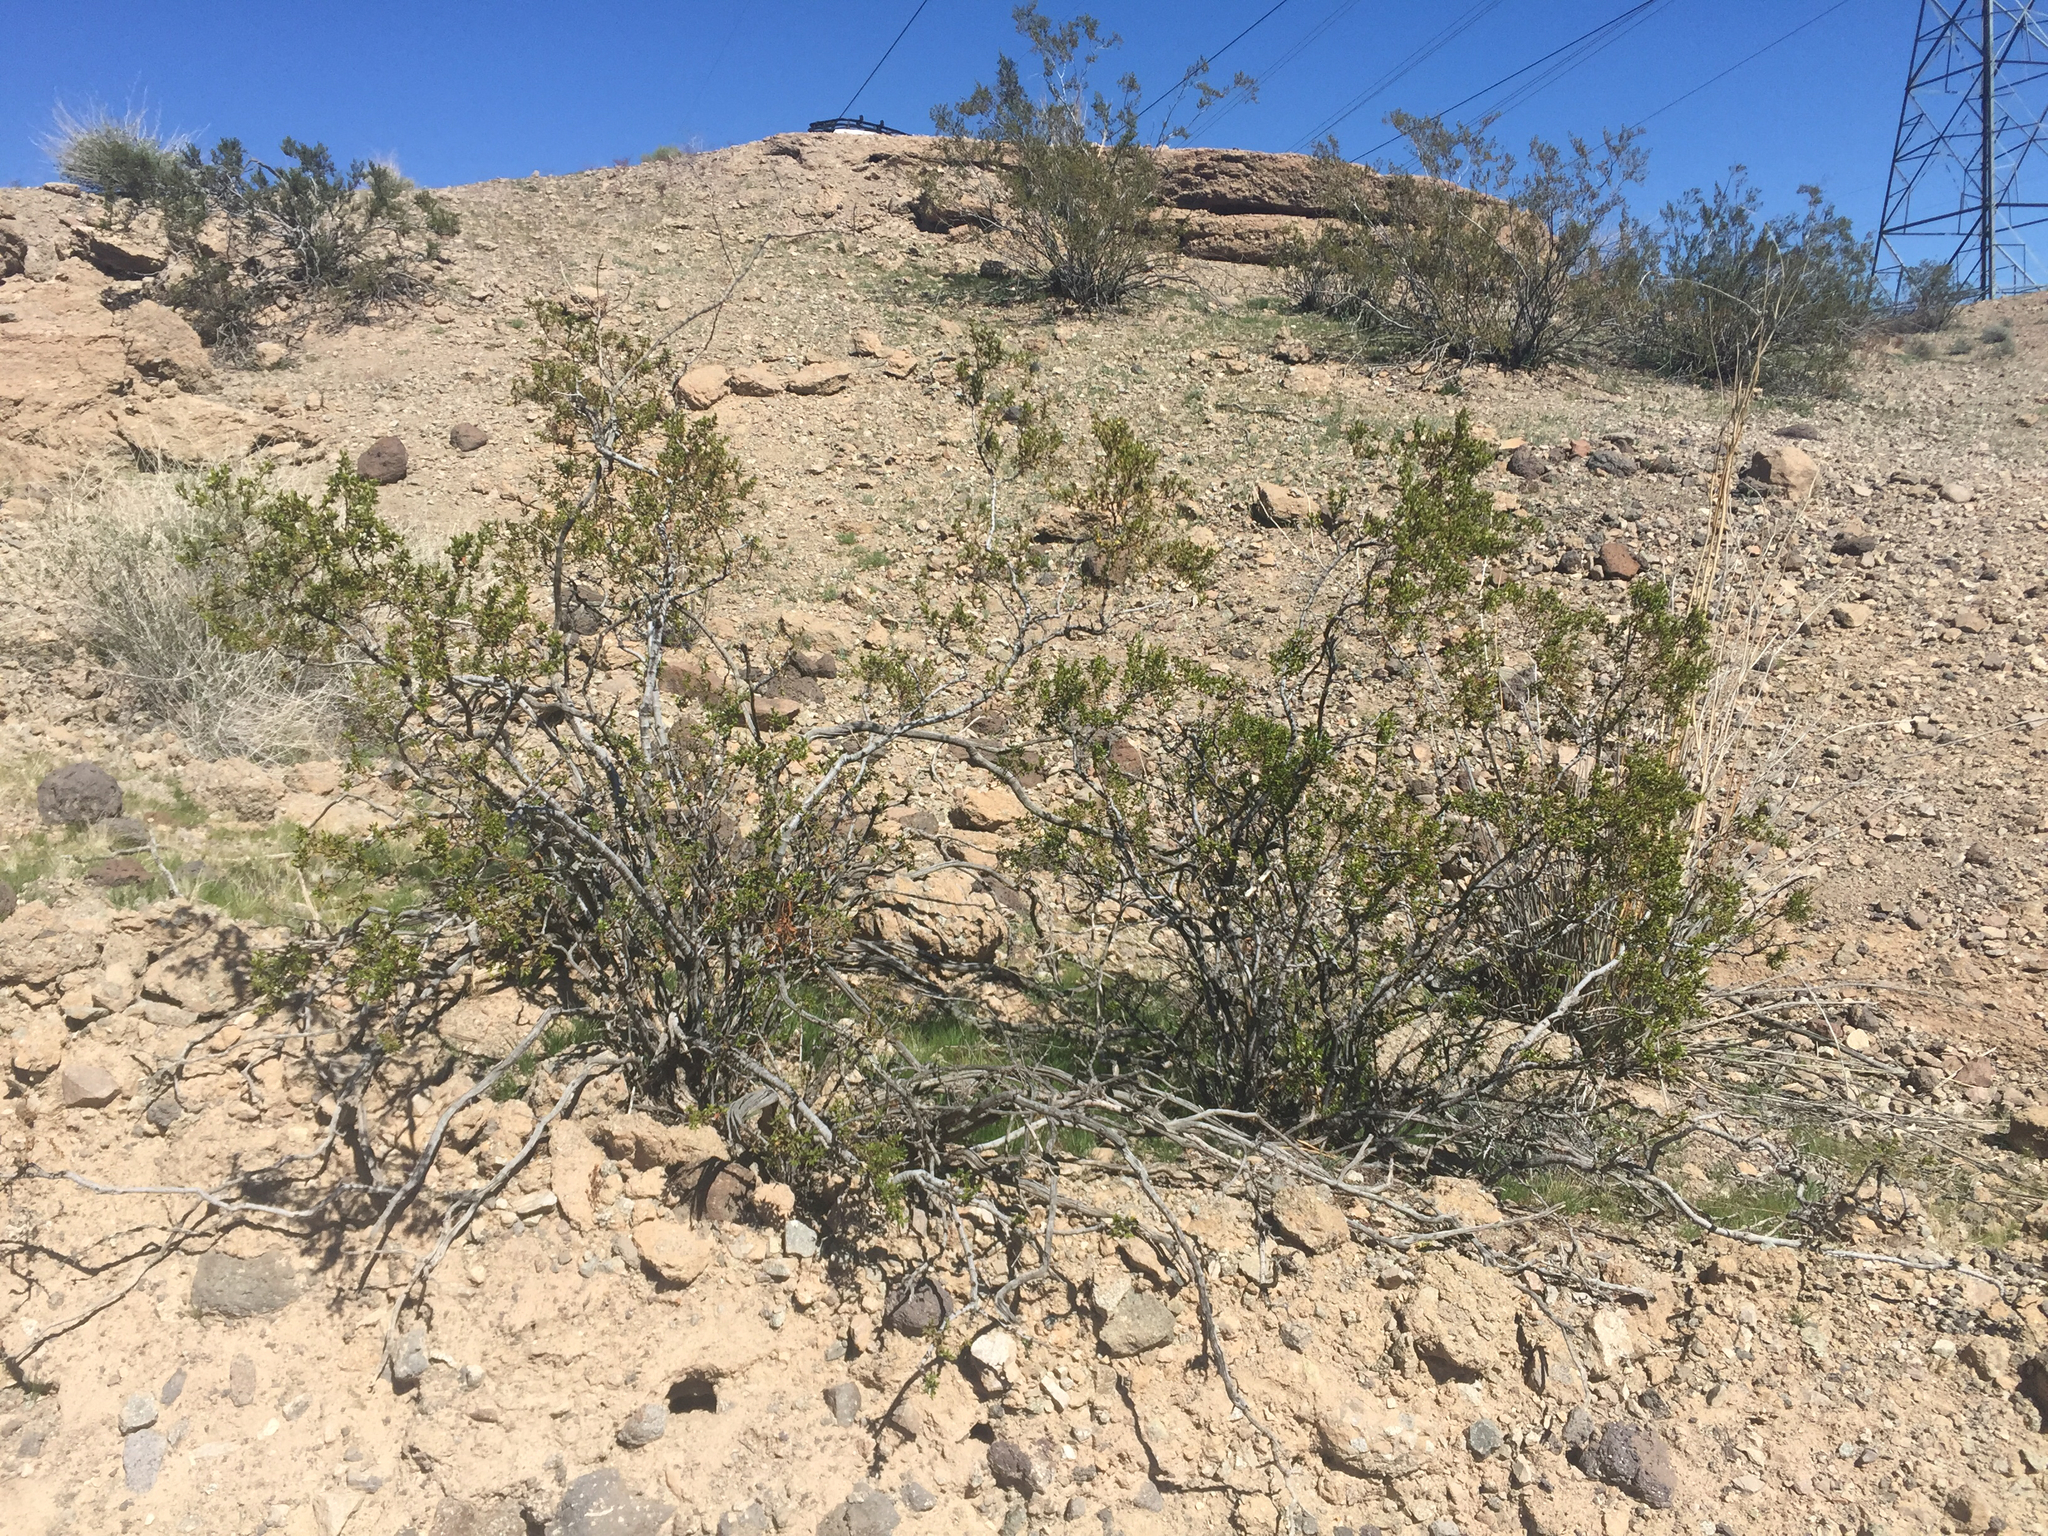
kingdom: Plantae
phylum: Tracheophyta
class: Magnoliopsida
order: Zygophyllales
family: Zygophyllaceae
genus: Larrea
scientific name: Larrea tridentata
